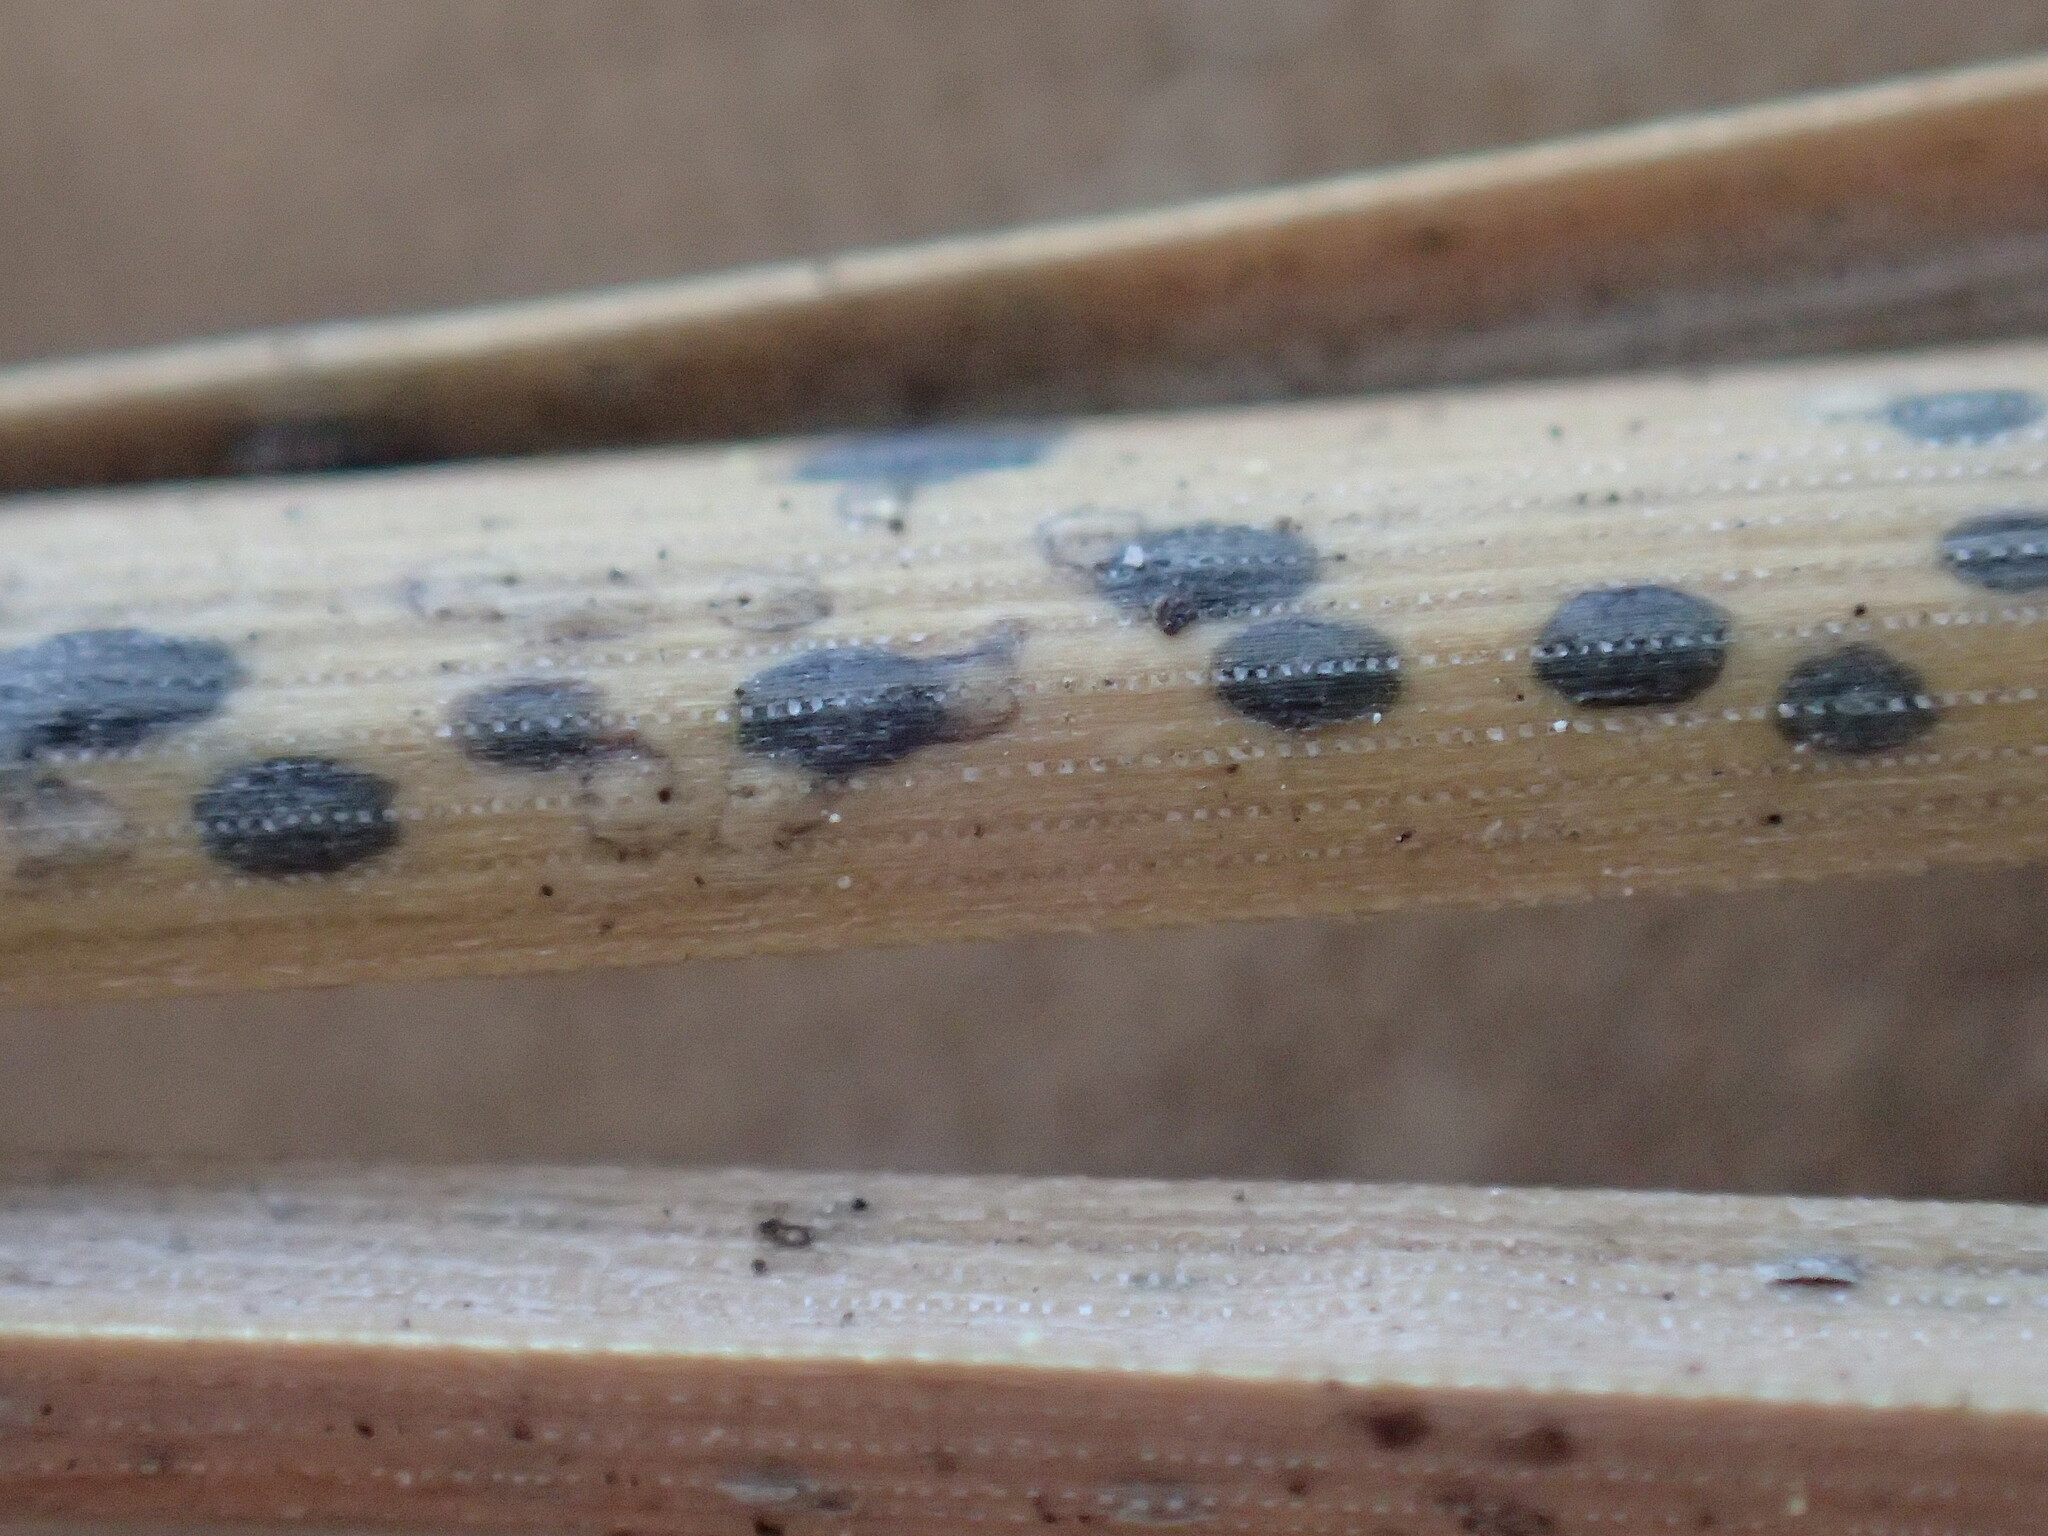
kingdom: Fungi
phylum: Ascomycota
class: Leotiomycetes
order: Rhytismatales
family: Rhytismataceae
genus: Lophodermium
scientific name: Lophodermium pinastri
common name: Pine needle split
